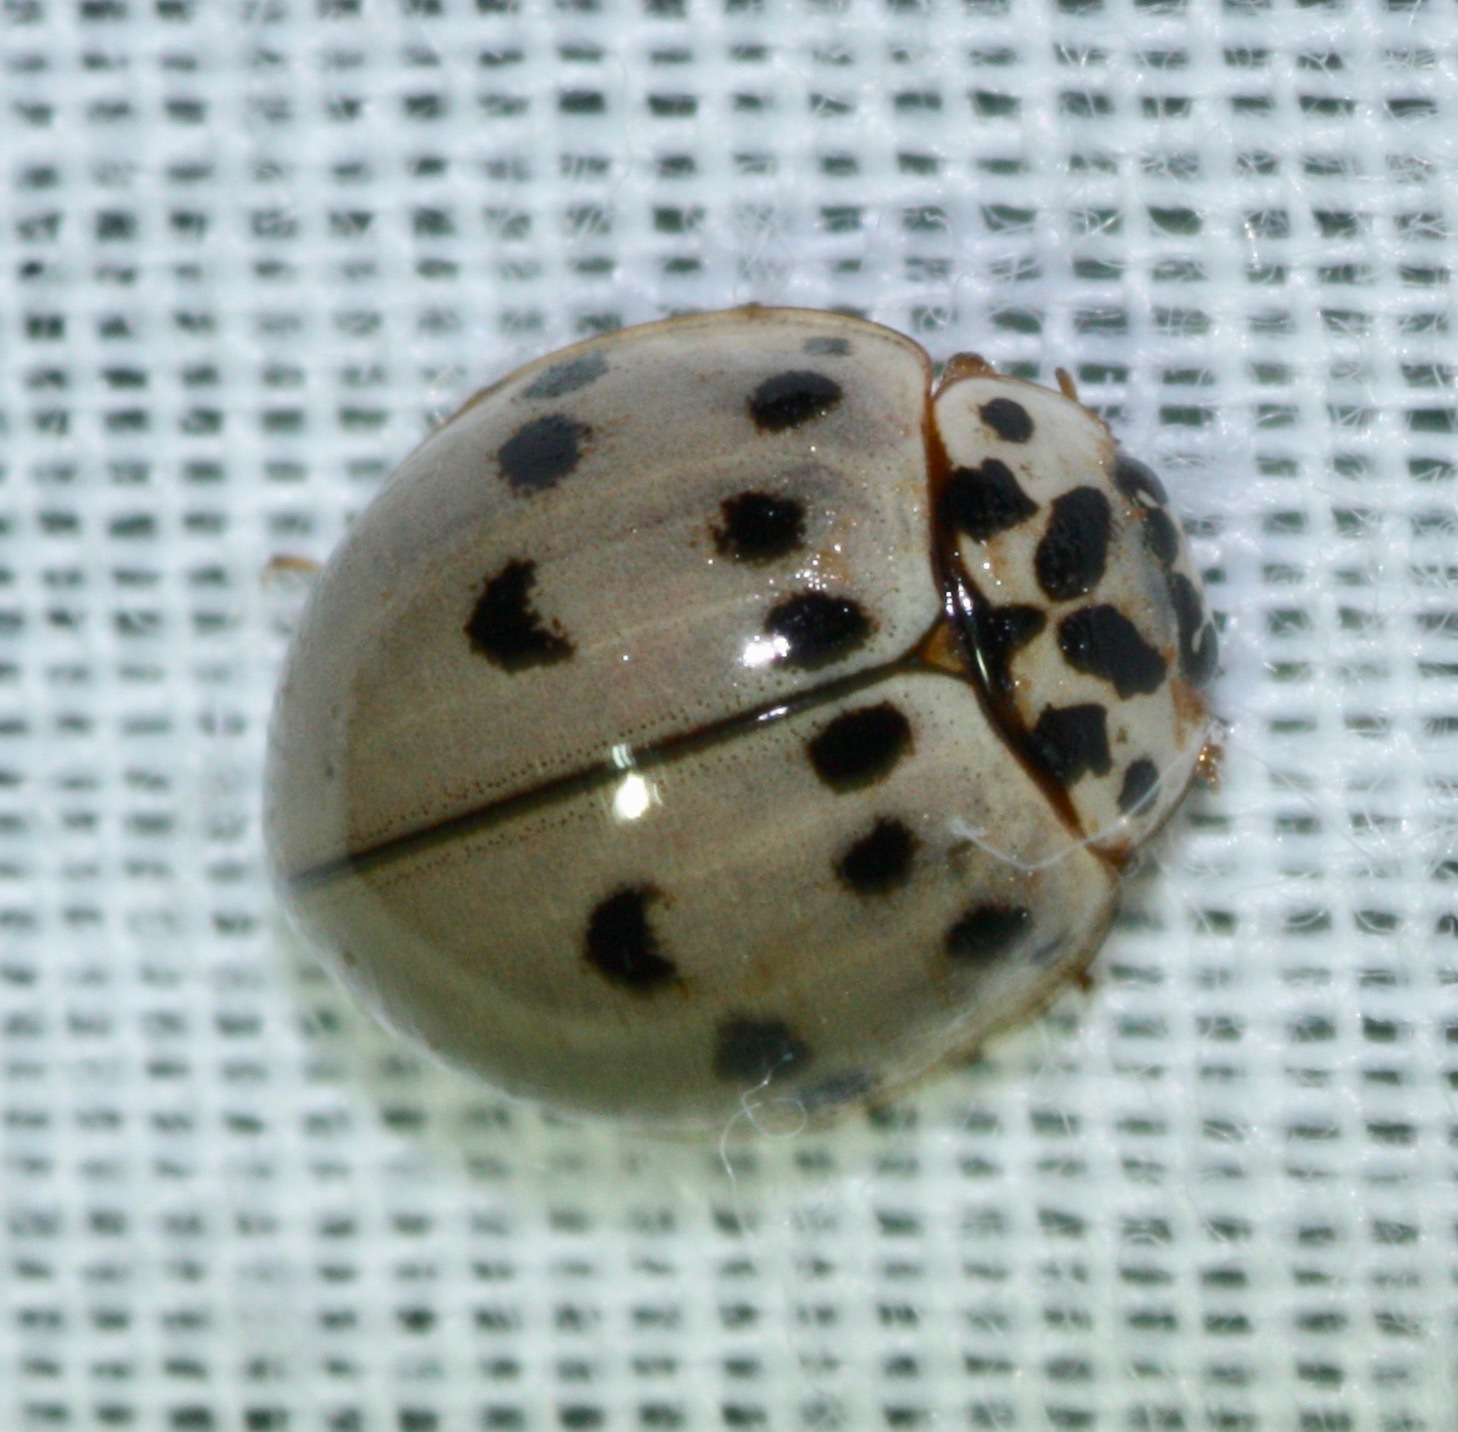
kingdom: Animalia
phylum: Arthropoda
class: Insecta
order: Coleoptera
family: Coccinellidae
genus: Olla
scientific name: Olla v-nigrum
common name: Ashy gray lady beetle
